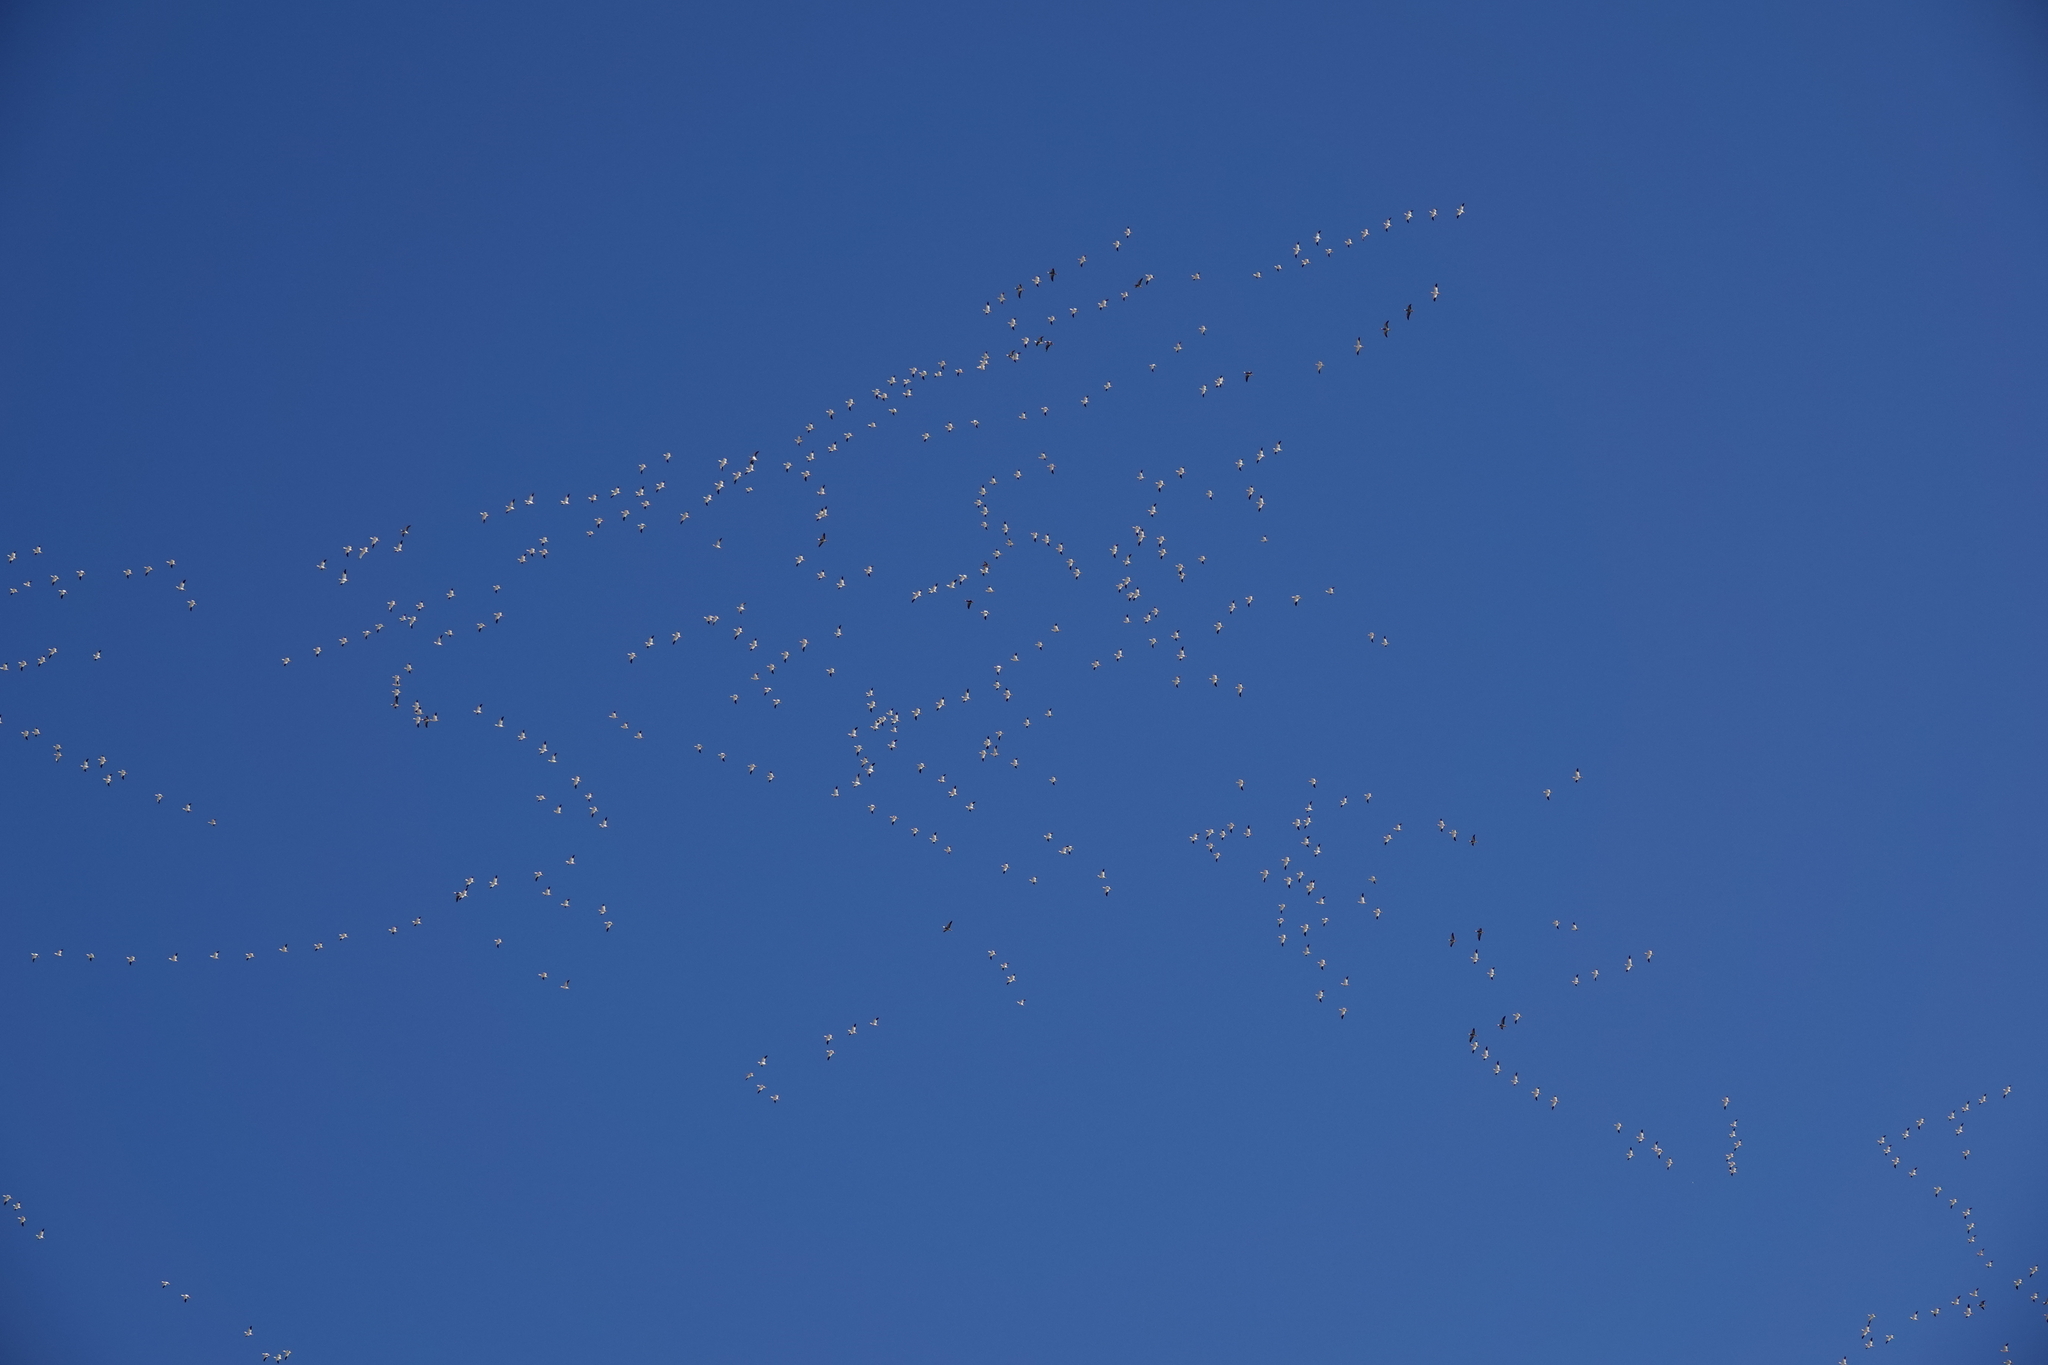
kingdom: Animalia
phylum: Chordata
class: Aves
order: Anseriformes
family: Anatidae
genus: Anser
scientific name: Anser caerulescens
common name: Snow goose
